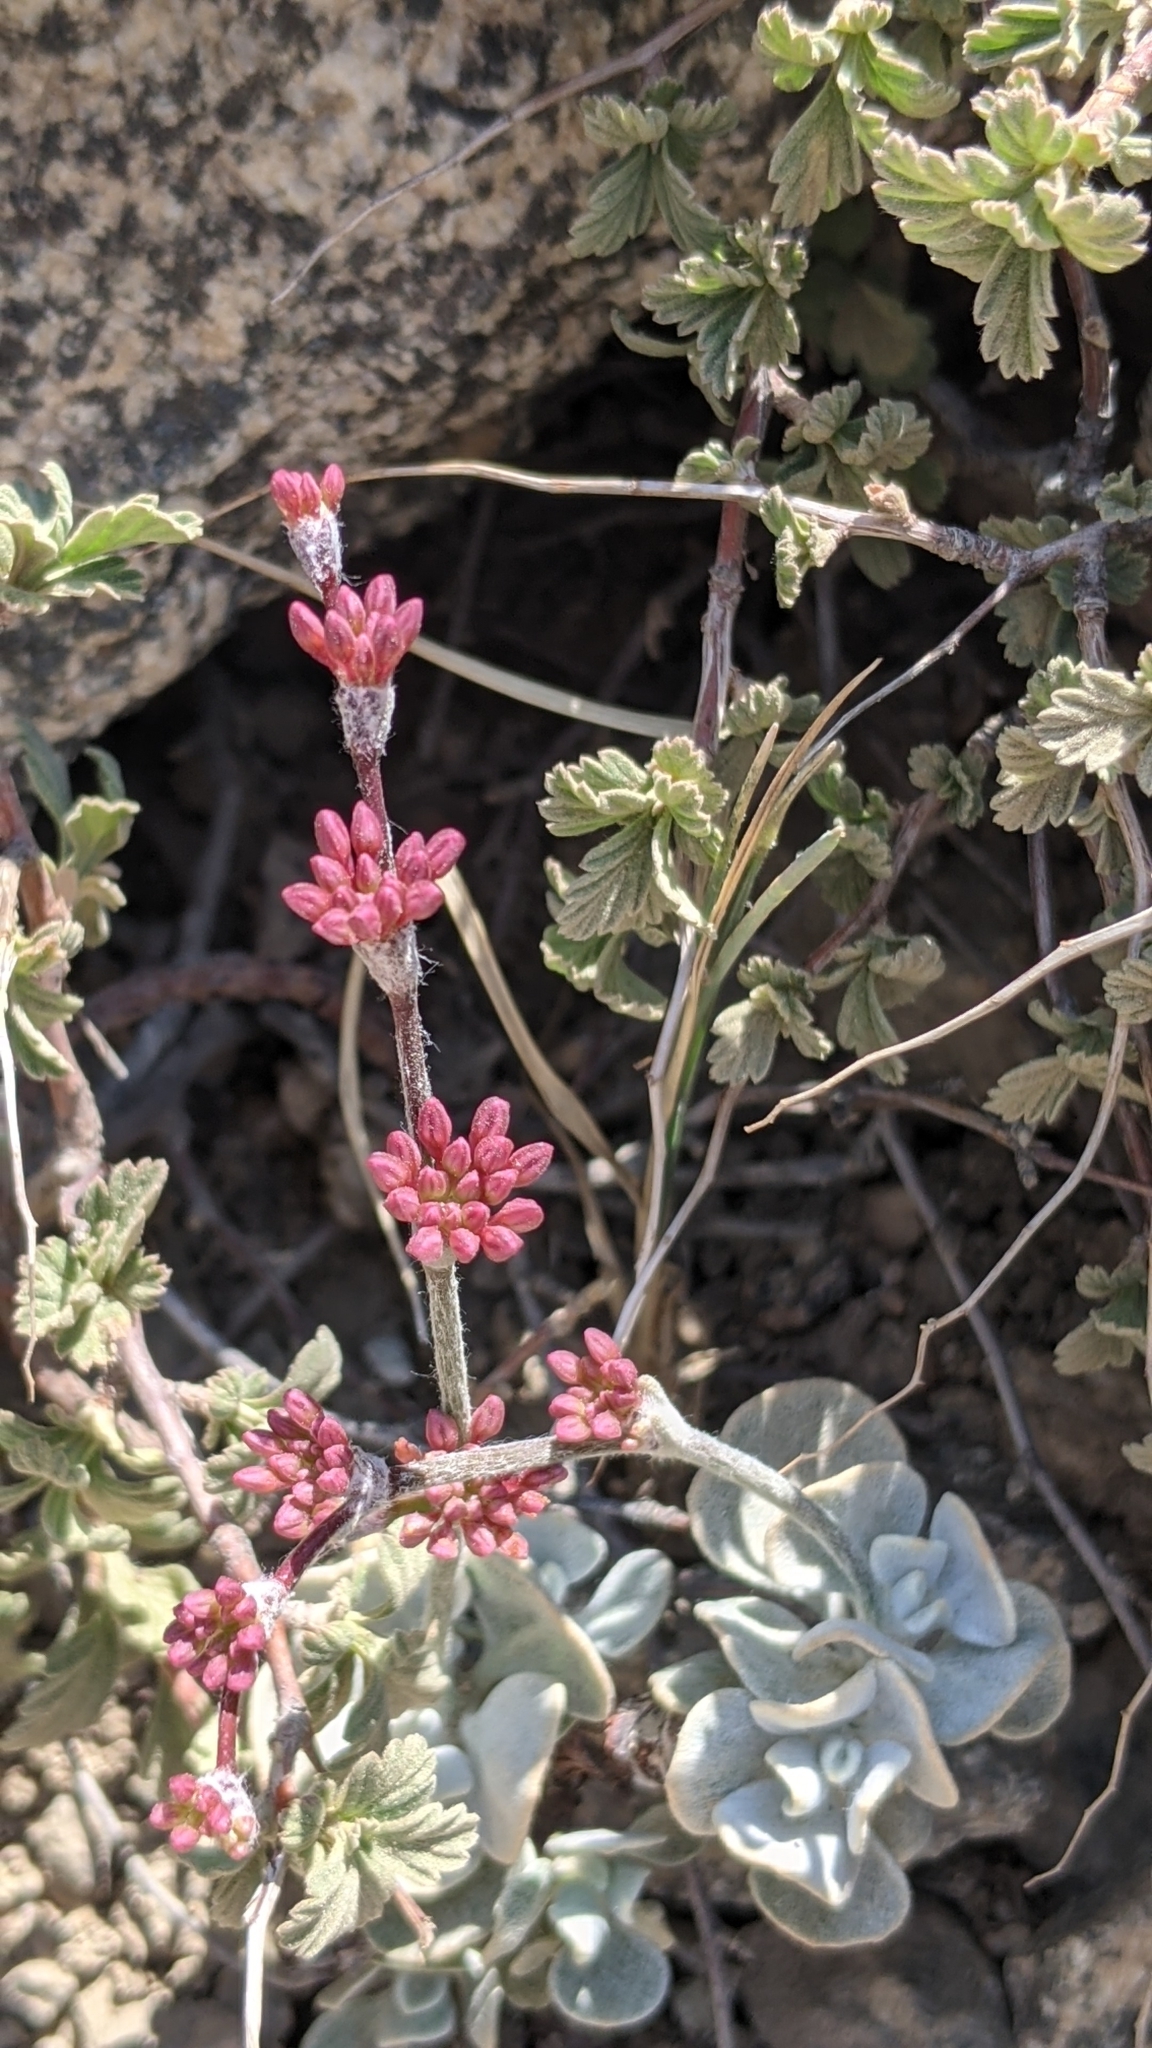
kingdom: Plantae
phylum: Tracheophyta
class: Magnoliopsida
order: Caryophyllales
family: Polygonaceae
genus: Eriogonum
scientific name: Eriogonum saxatile
